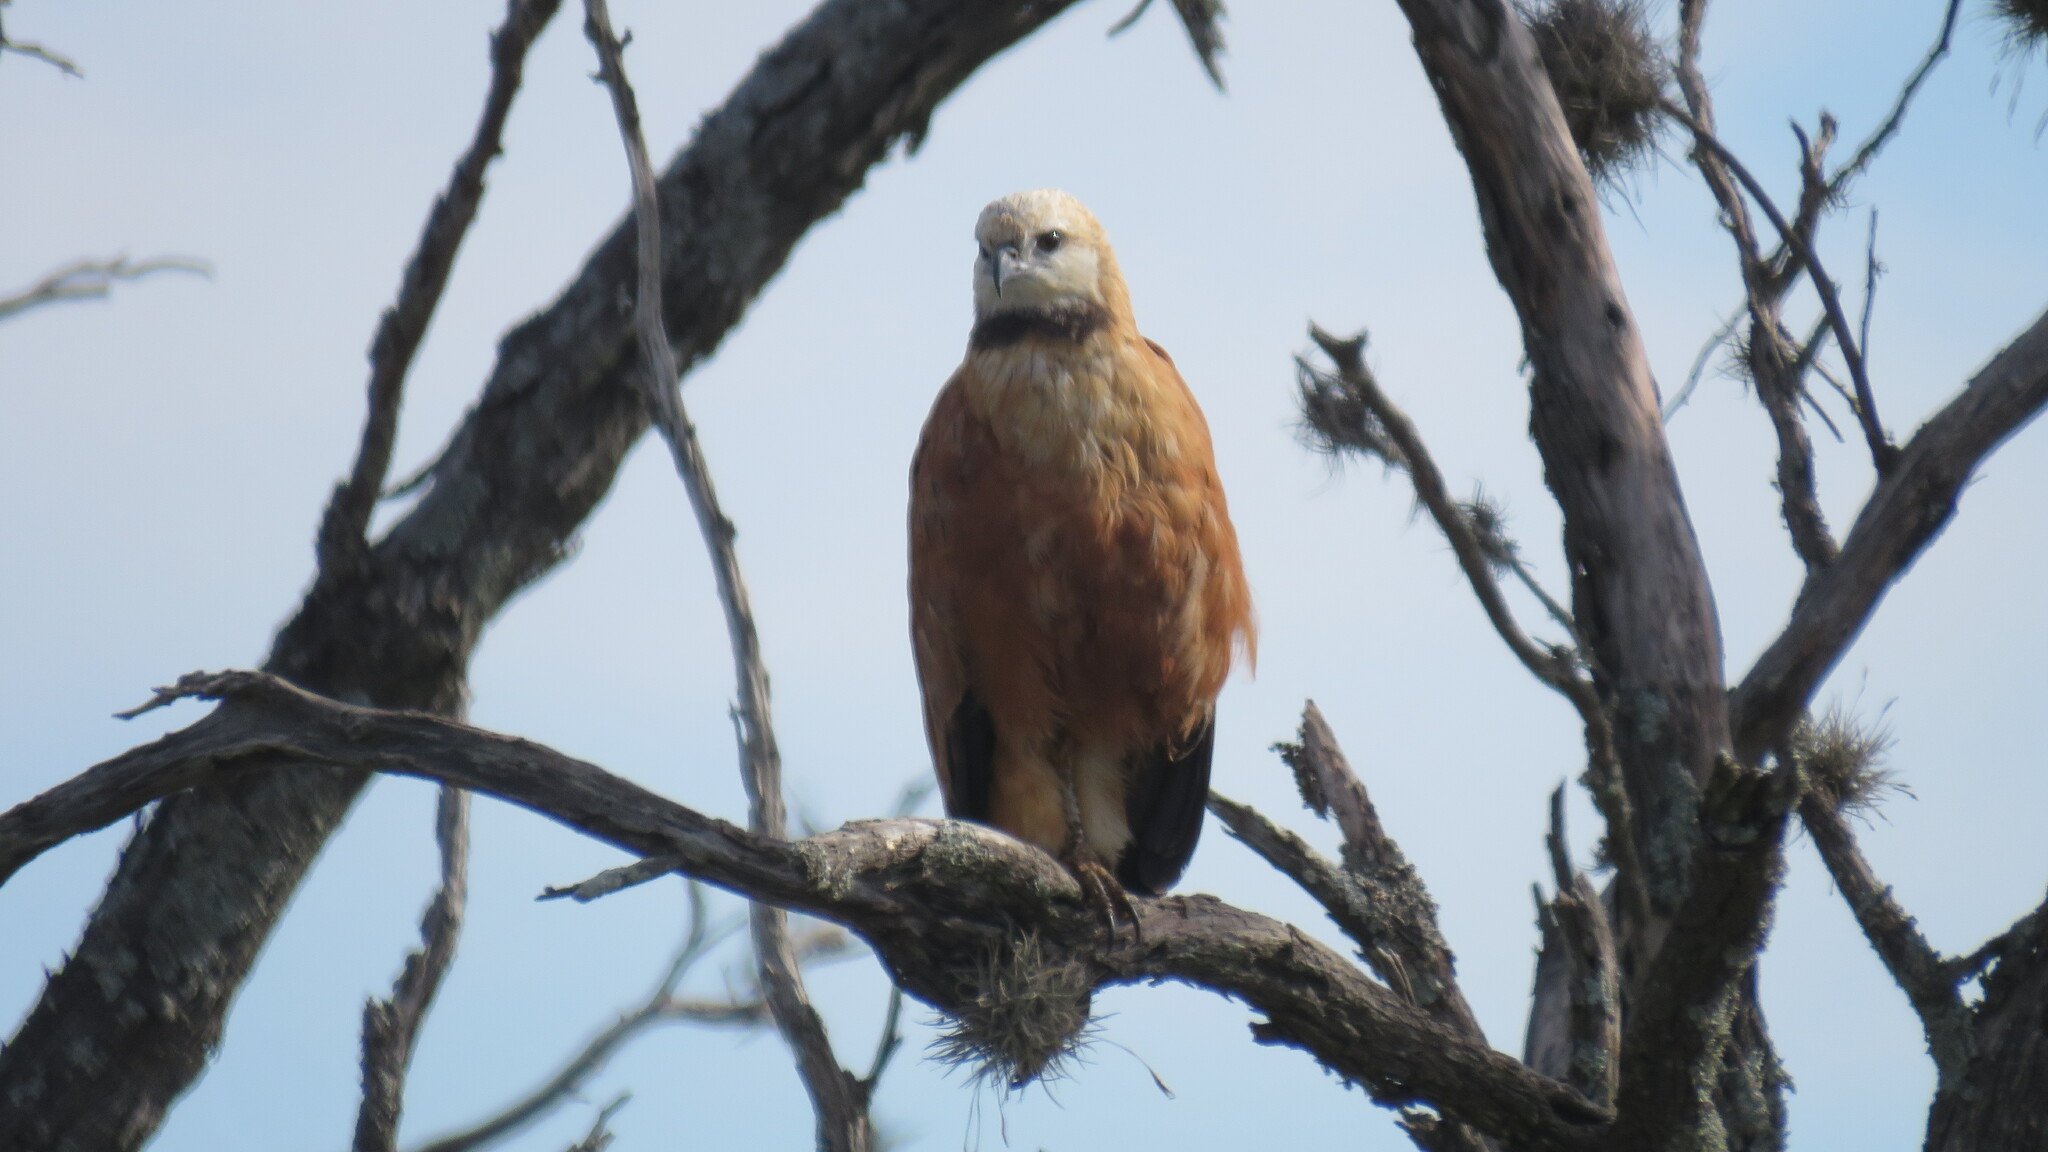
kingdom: Animalia
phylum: Chordata
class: Aves
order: Accipitriformes
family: Accipitridae
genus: Busarellus
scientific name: Busarellus nigricollis
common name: Black-collared hawk
